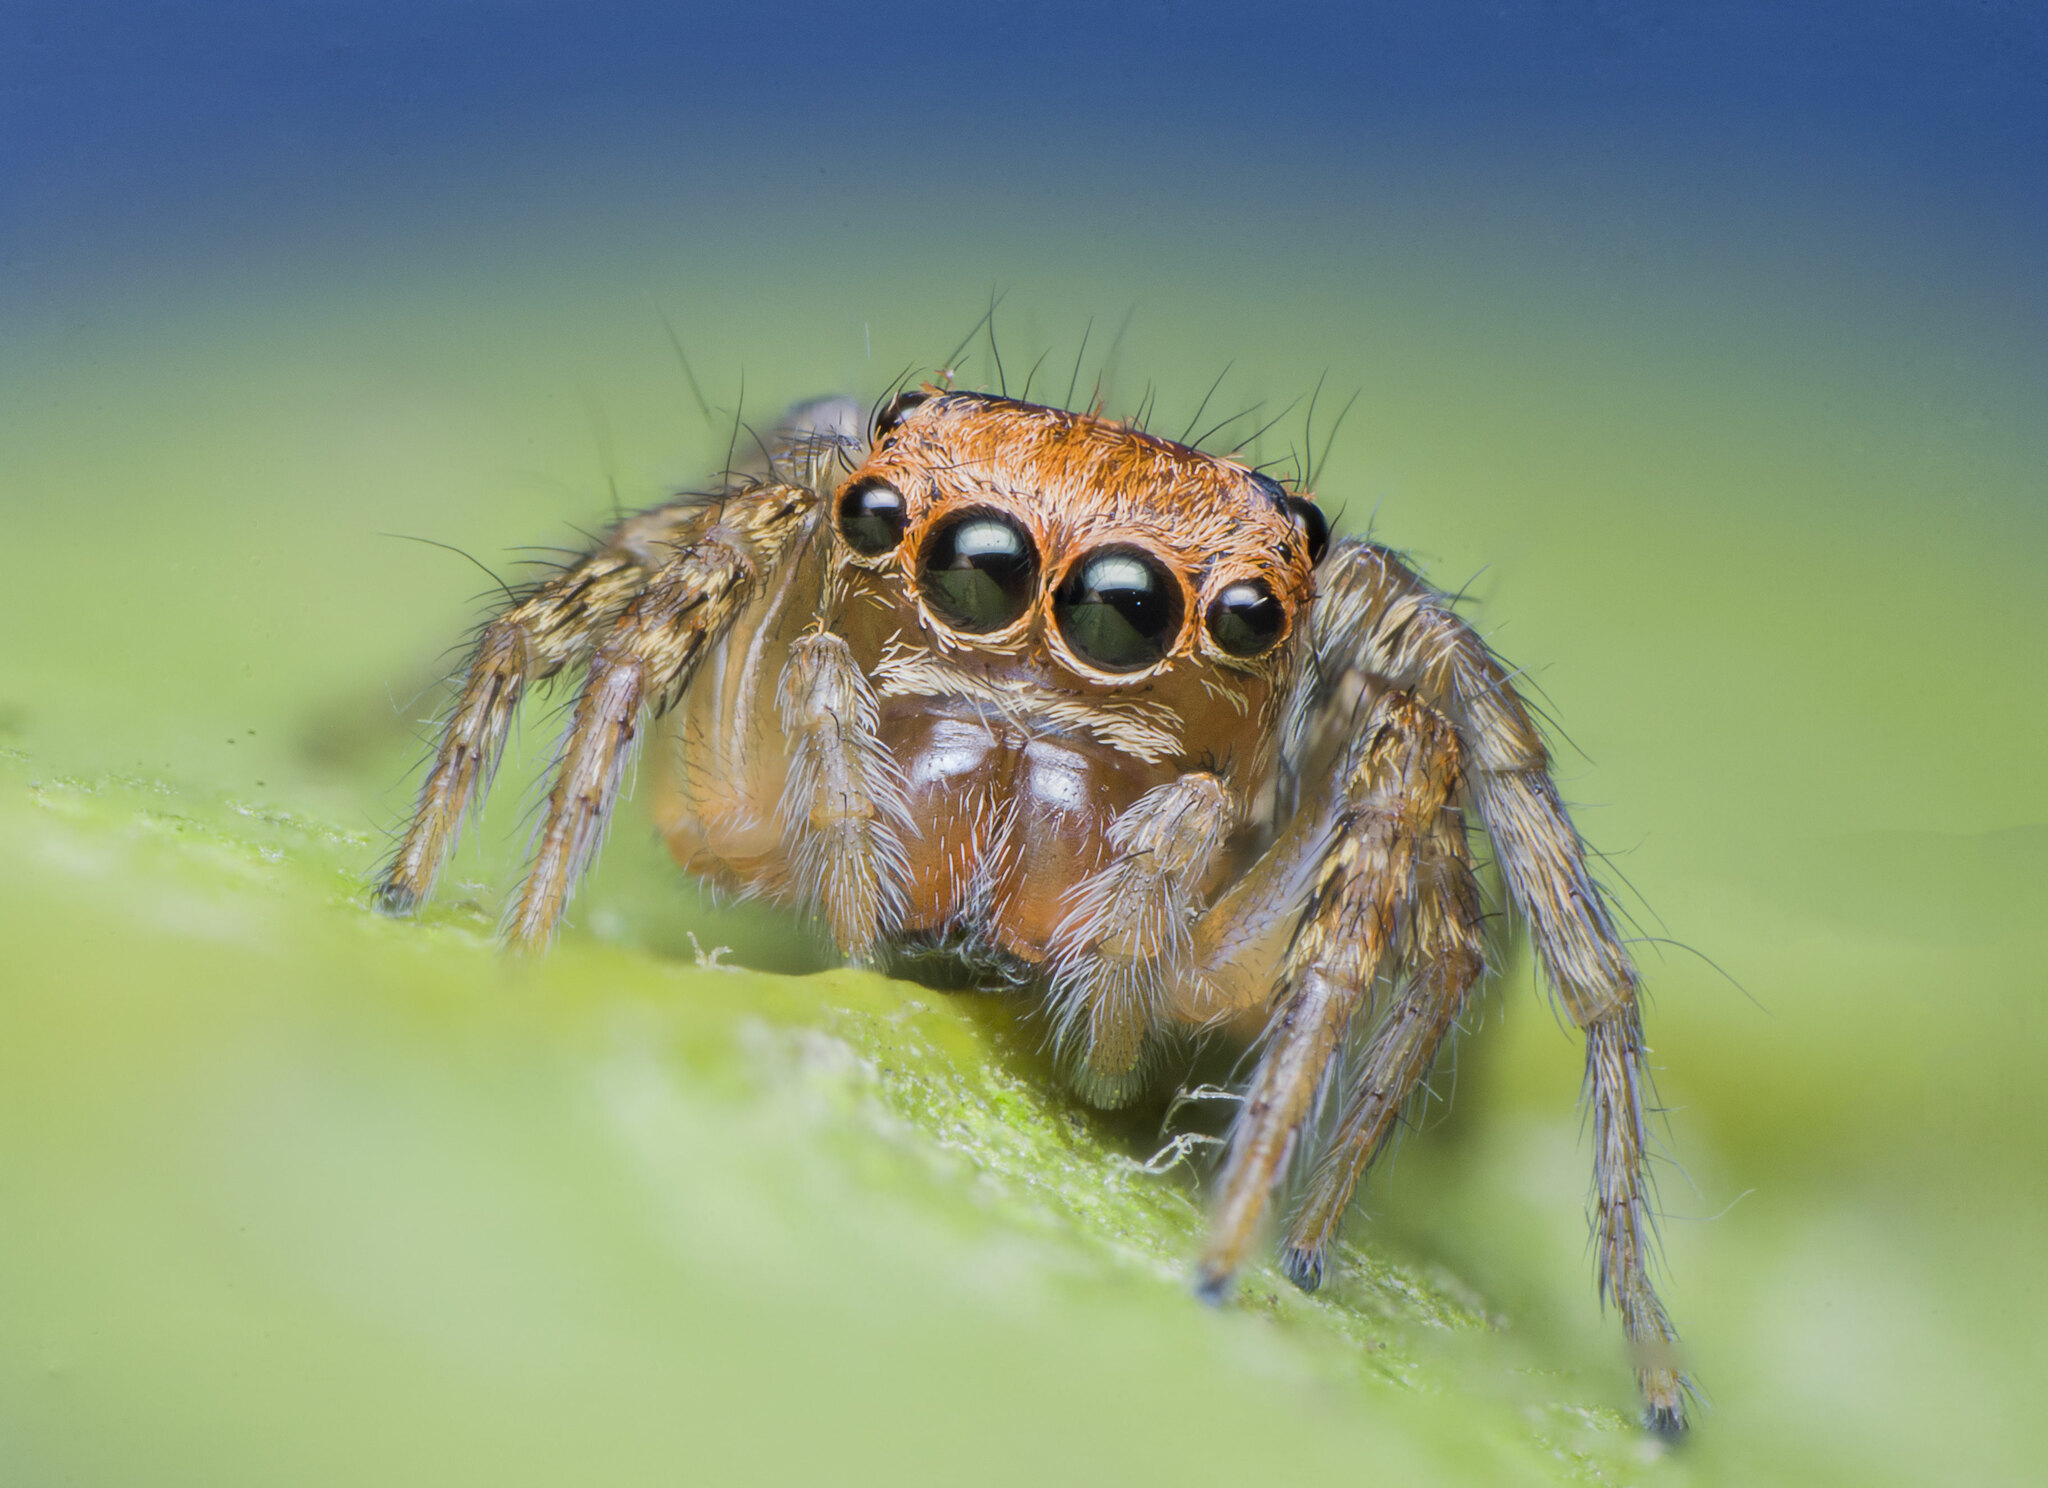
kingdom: Animalia
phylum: Arthropoda
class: Arachnida
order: Araneae
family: Salticidae
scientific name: Salticidae
